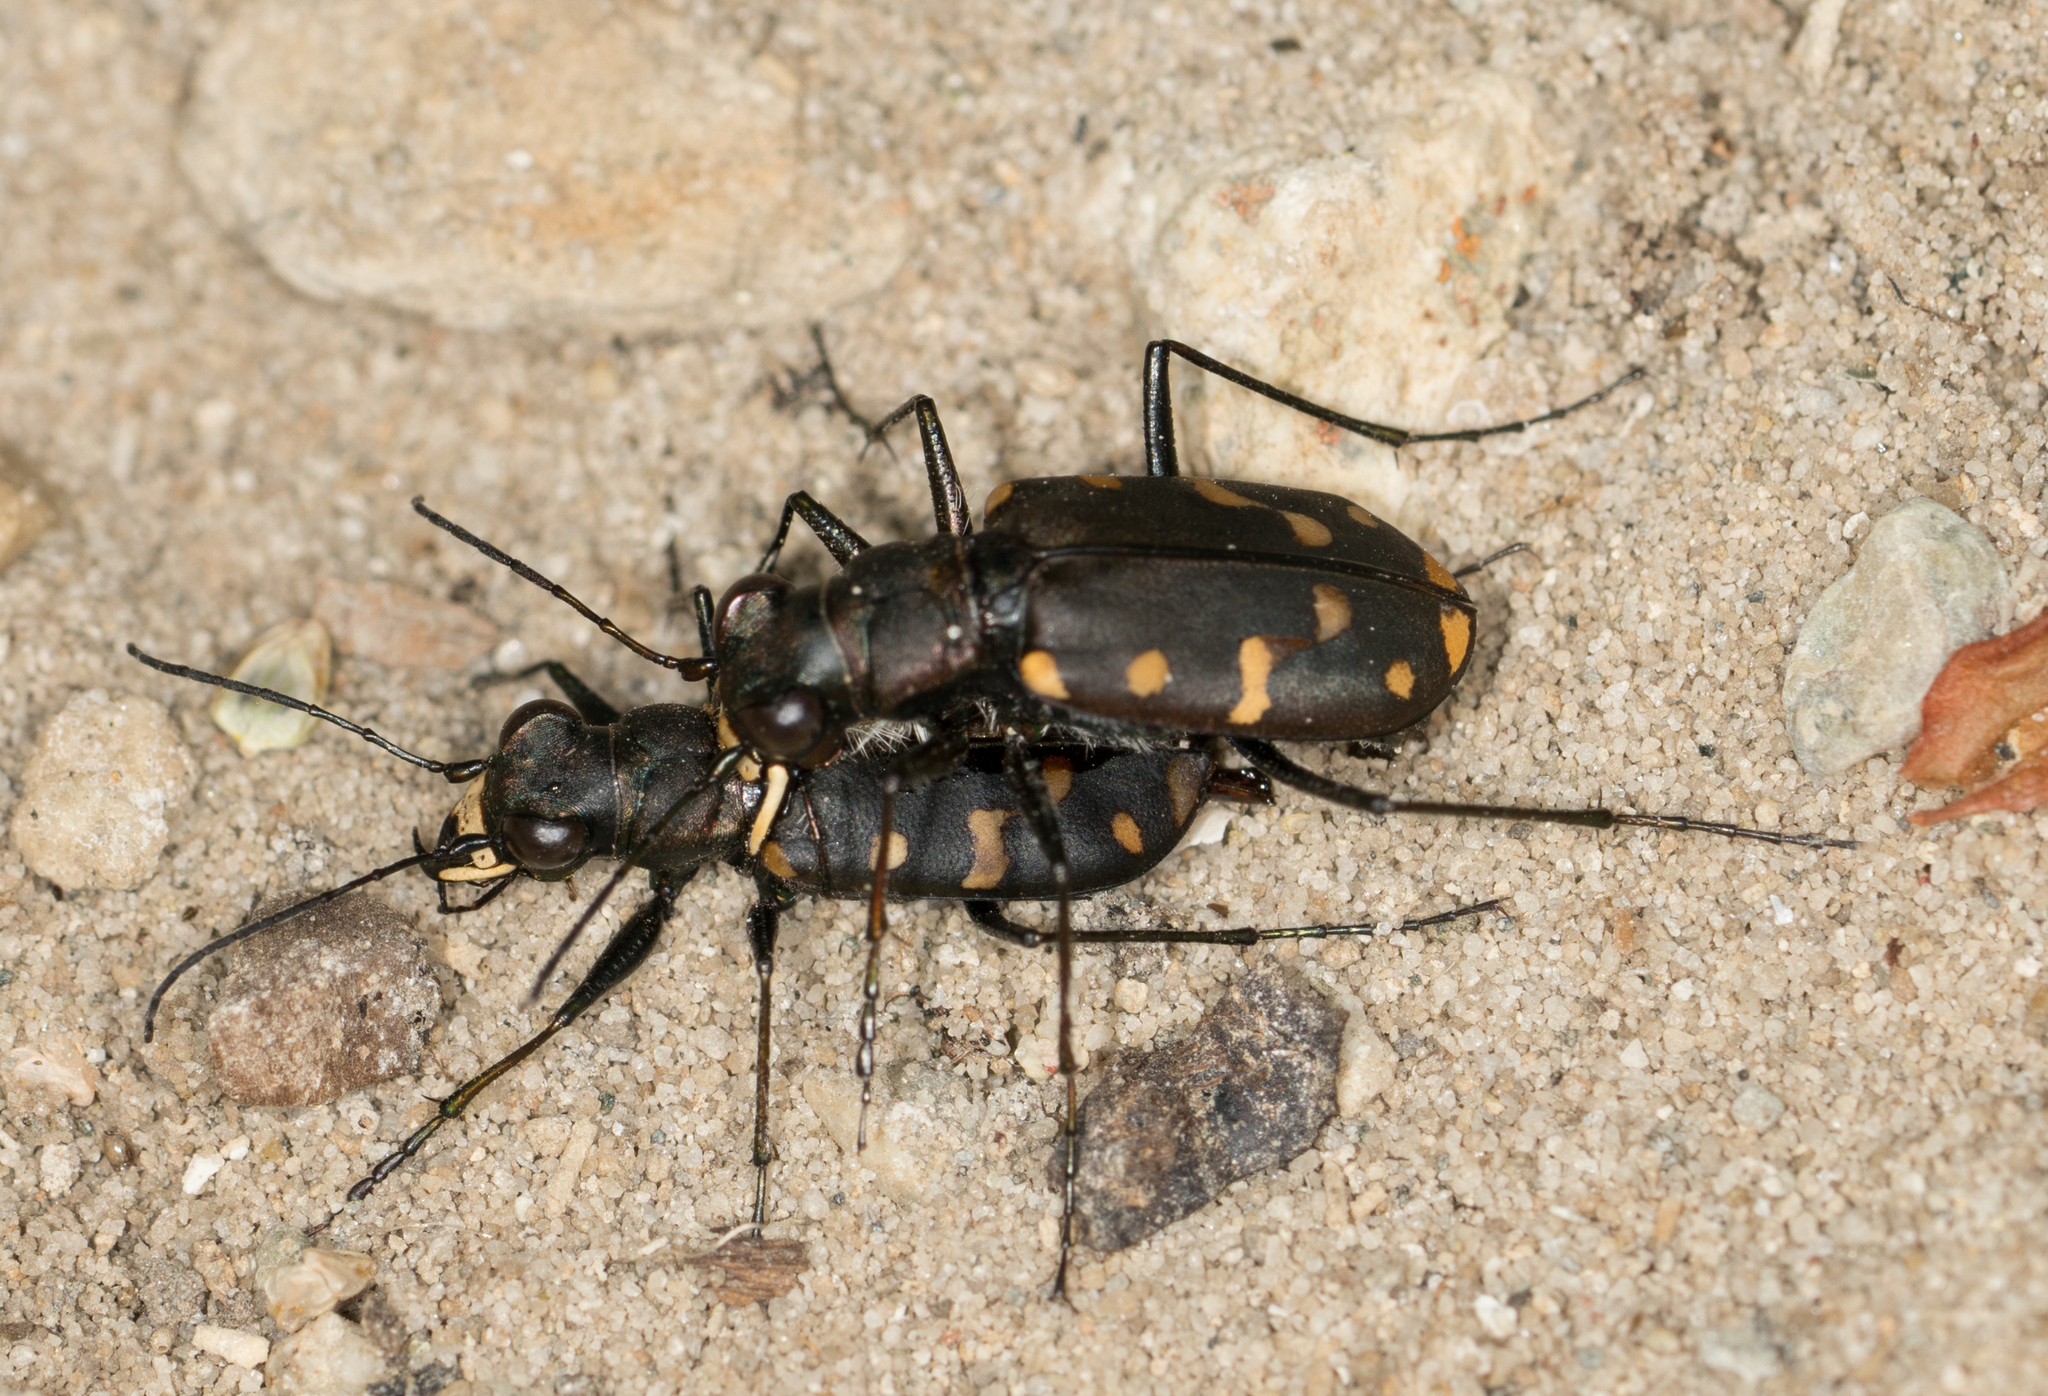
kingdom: Animalia
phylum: Arthropoda
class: Insecta
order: Coleoptera
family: Carabidae
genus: Cicindela
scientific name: Cicindela oregona
